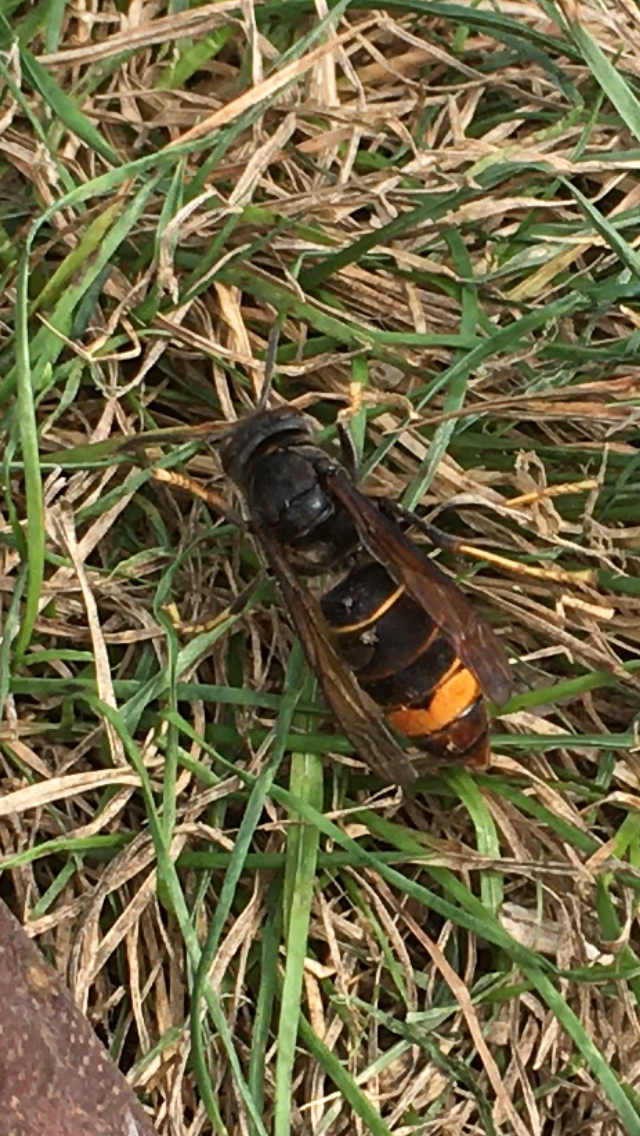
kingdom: Animalia
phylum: Arthropoda
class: Insecta
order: Hymenoptera
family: Vespidae
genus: Vespa
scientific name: Vespa velutina
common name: Asian hornet
